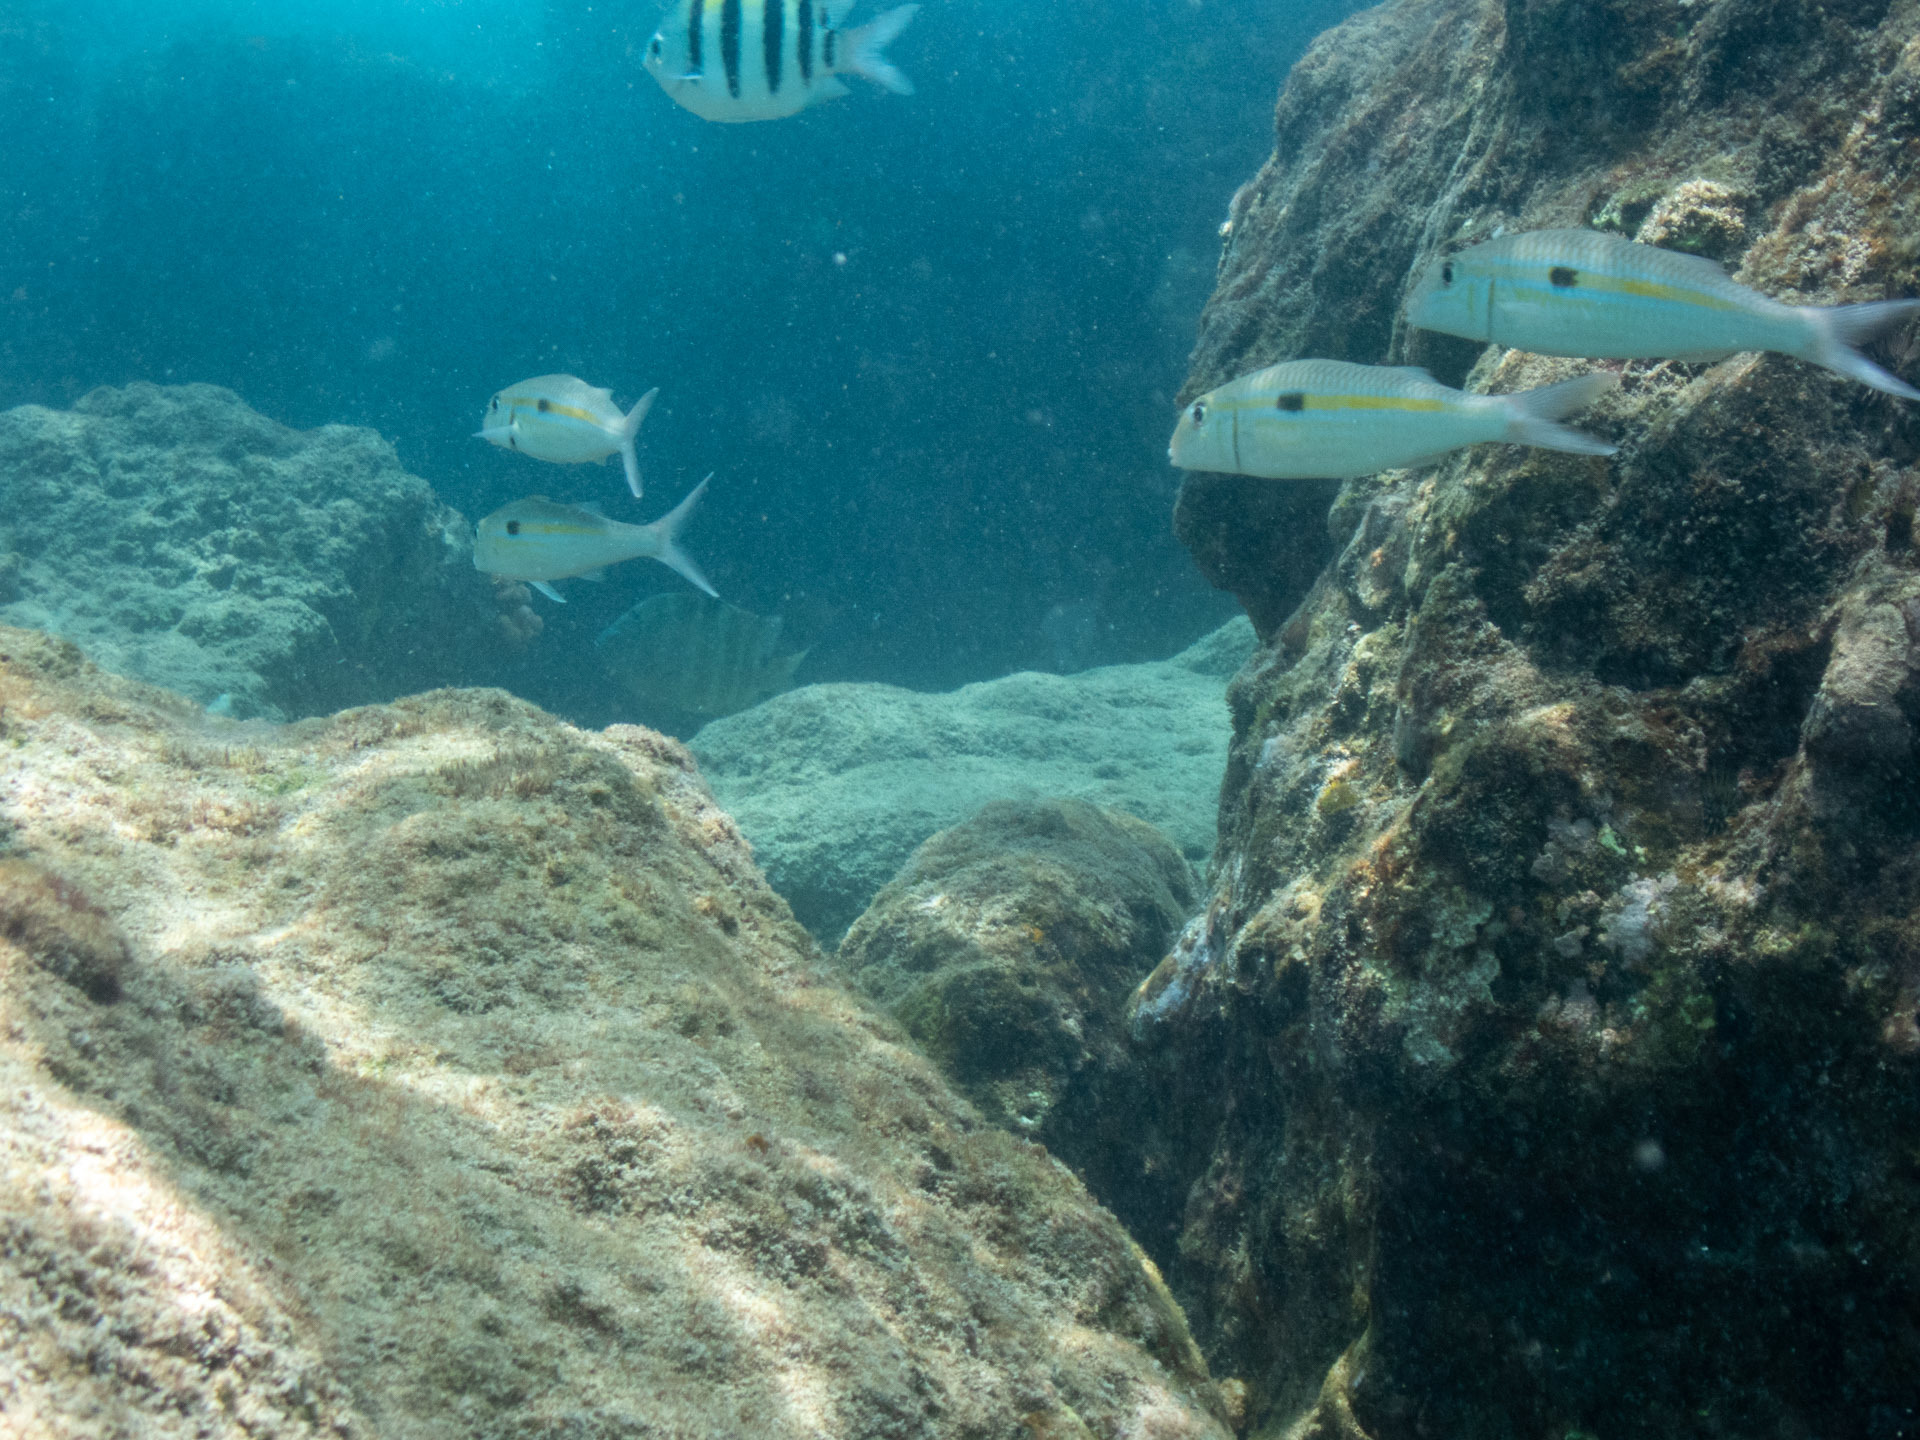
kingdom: Animalia
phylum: Chordata
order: Perciformes
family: Mullidae
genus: Mulloidichthys
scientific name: Mulloidichthys flavolineatus
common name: Yellowstripe goatfish
